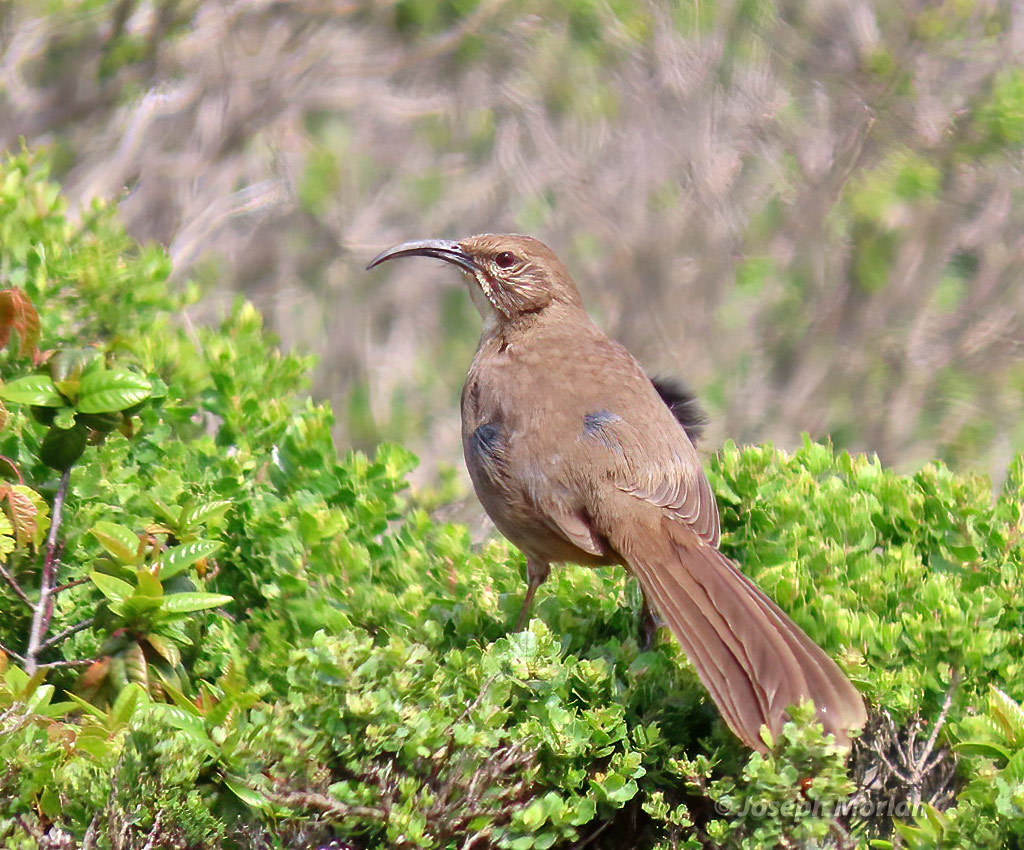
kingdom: Animalia
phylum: Chordata
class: Aves
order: Passeriformes
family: Mimidae
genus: Toxostoma
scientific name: Toxostoma redivivum
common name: California thrasher
